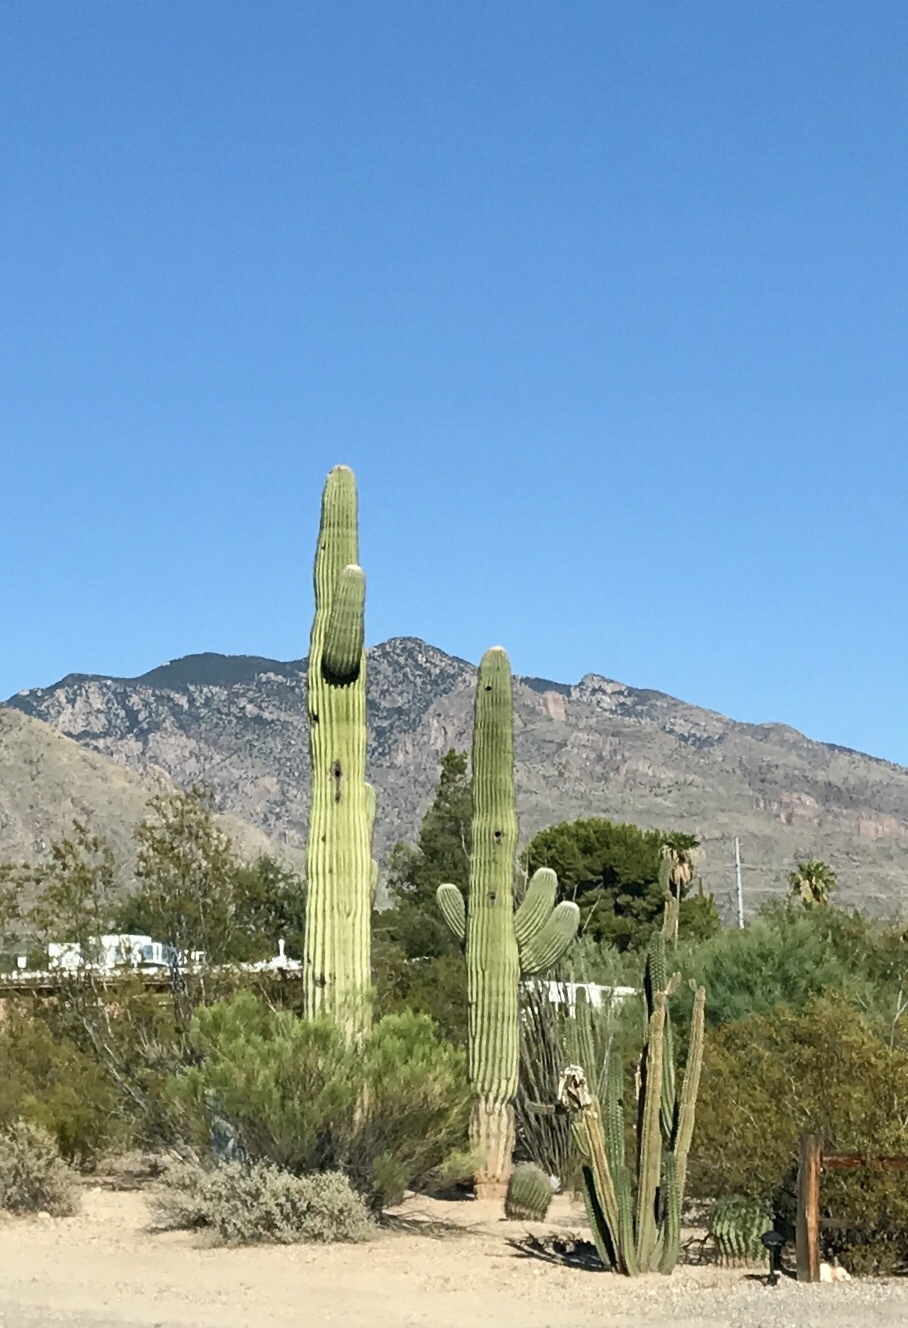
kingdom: Plantae
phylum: Tracheophyta
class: Magnoliopsida
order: Caryophyllales
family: Cactaceae
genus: Carnegiea
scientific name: Carnegiea gigantea
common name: Saguaro
